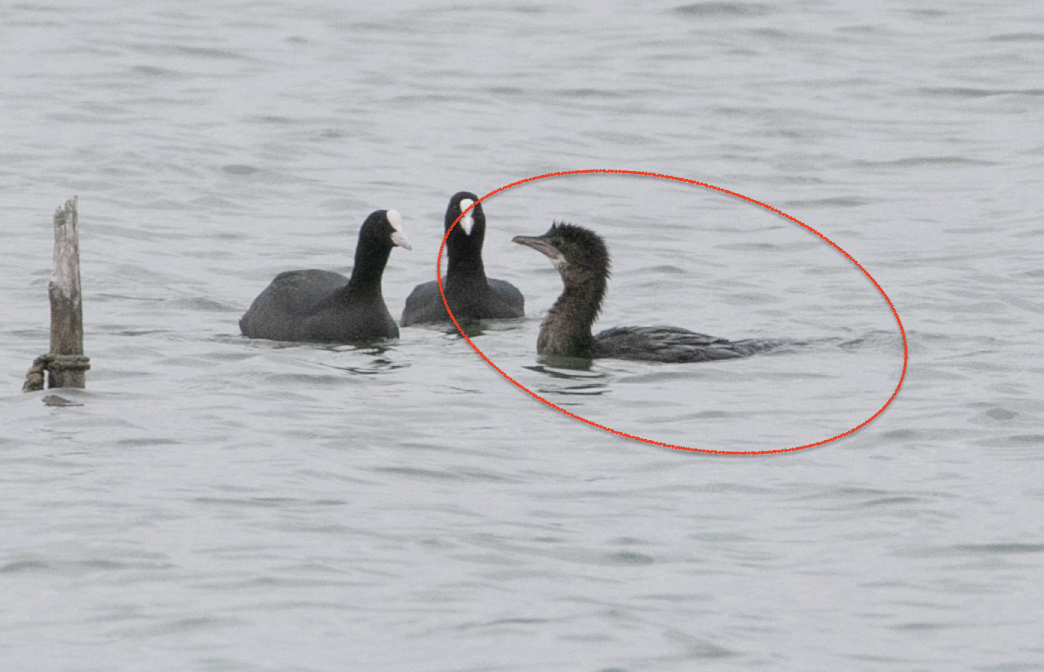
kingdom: Animalia
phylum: Chordata
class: Aves
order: Suliformes
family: Phalacrocoracidae
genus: Microcarbo
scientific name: Microcarbo pygmaeus
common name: Pygmy cormorant
